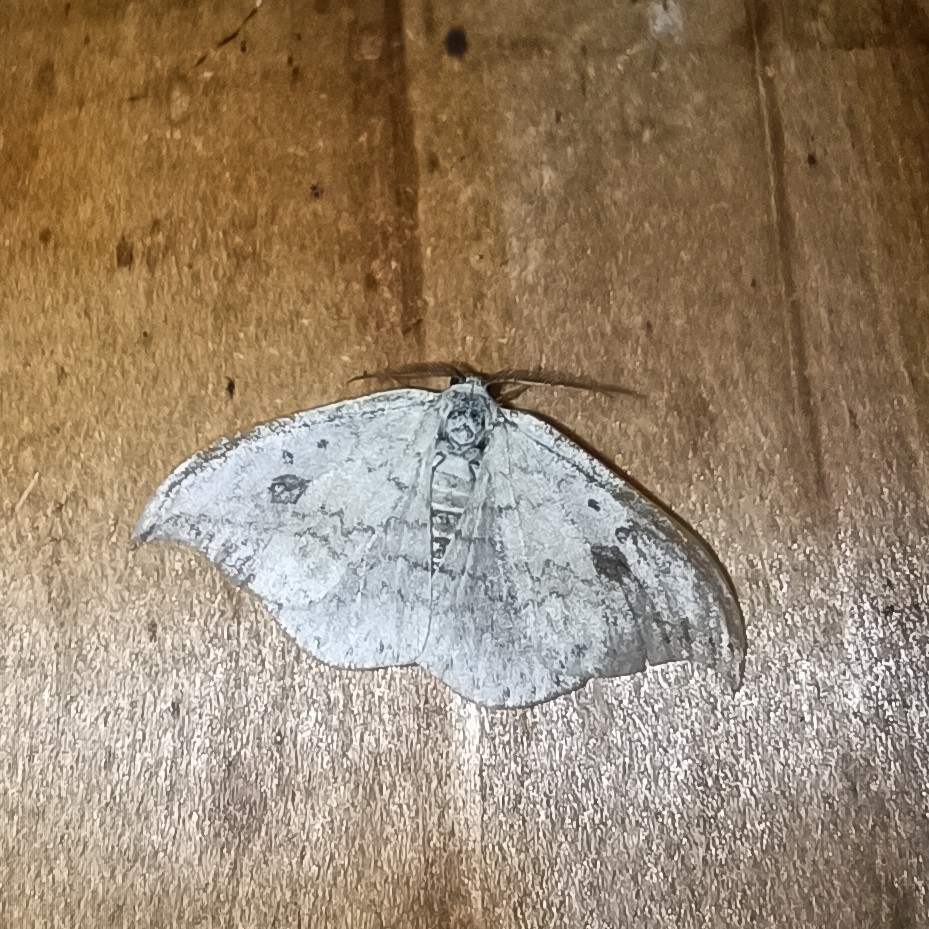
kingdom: Animalia
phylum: Arthropoda
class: Insecta
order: Lepidoptera
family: Drepanidae
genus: Drepana
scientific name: Drepana falcataria
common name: Pebble hook-tip
